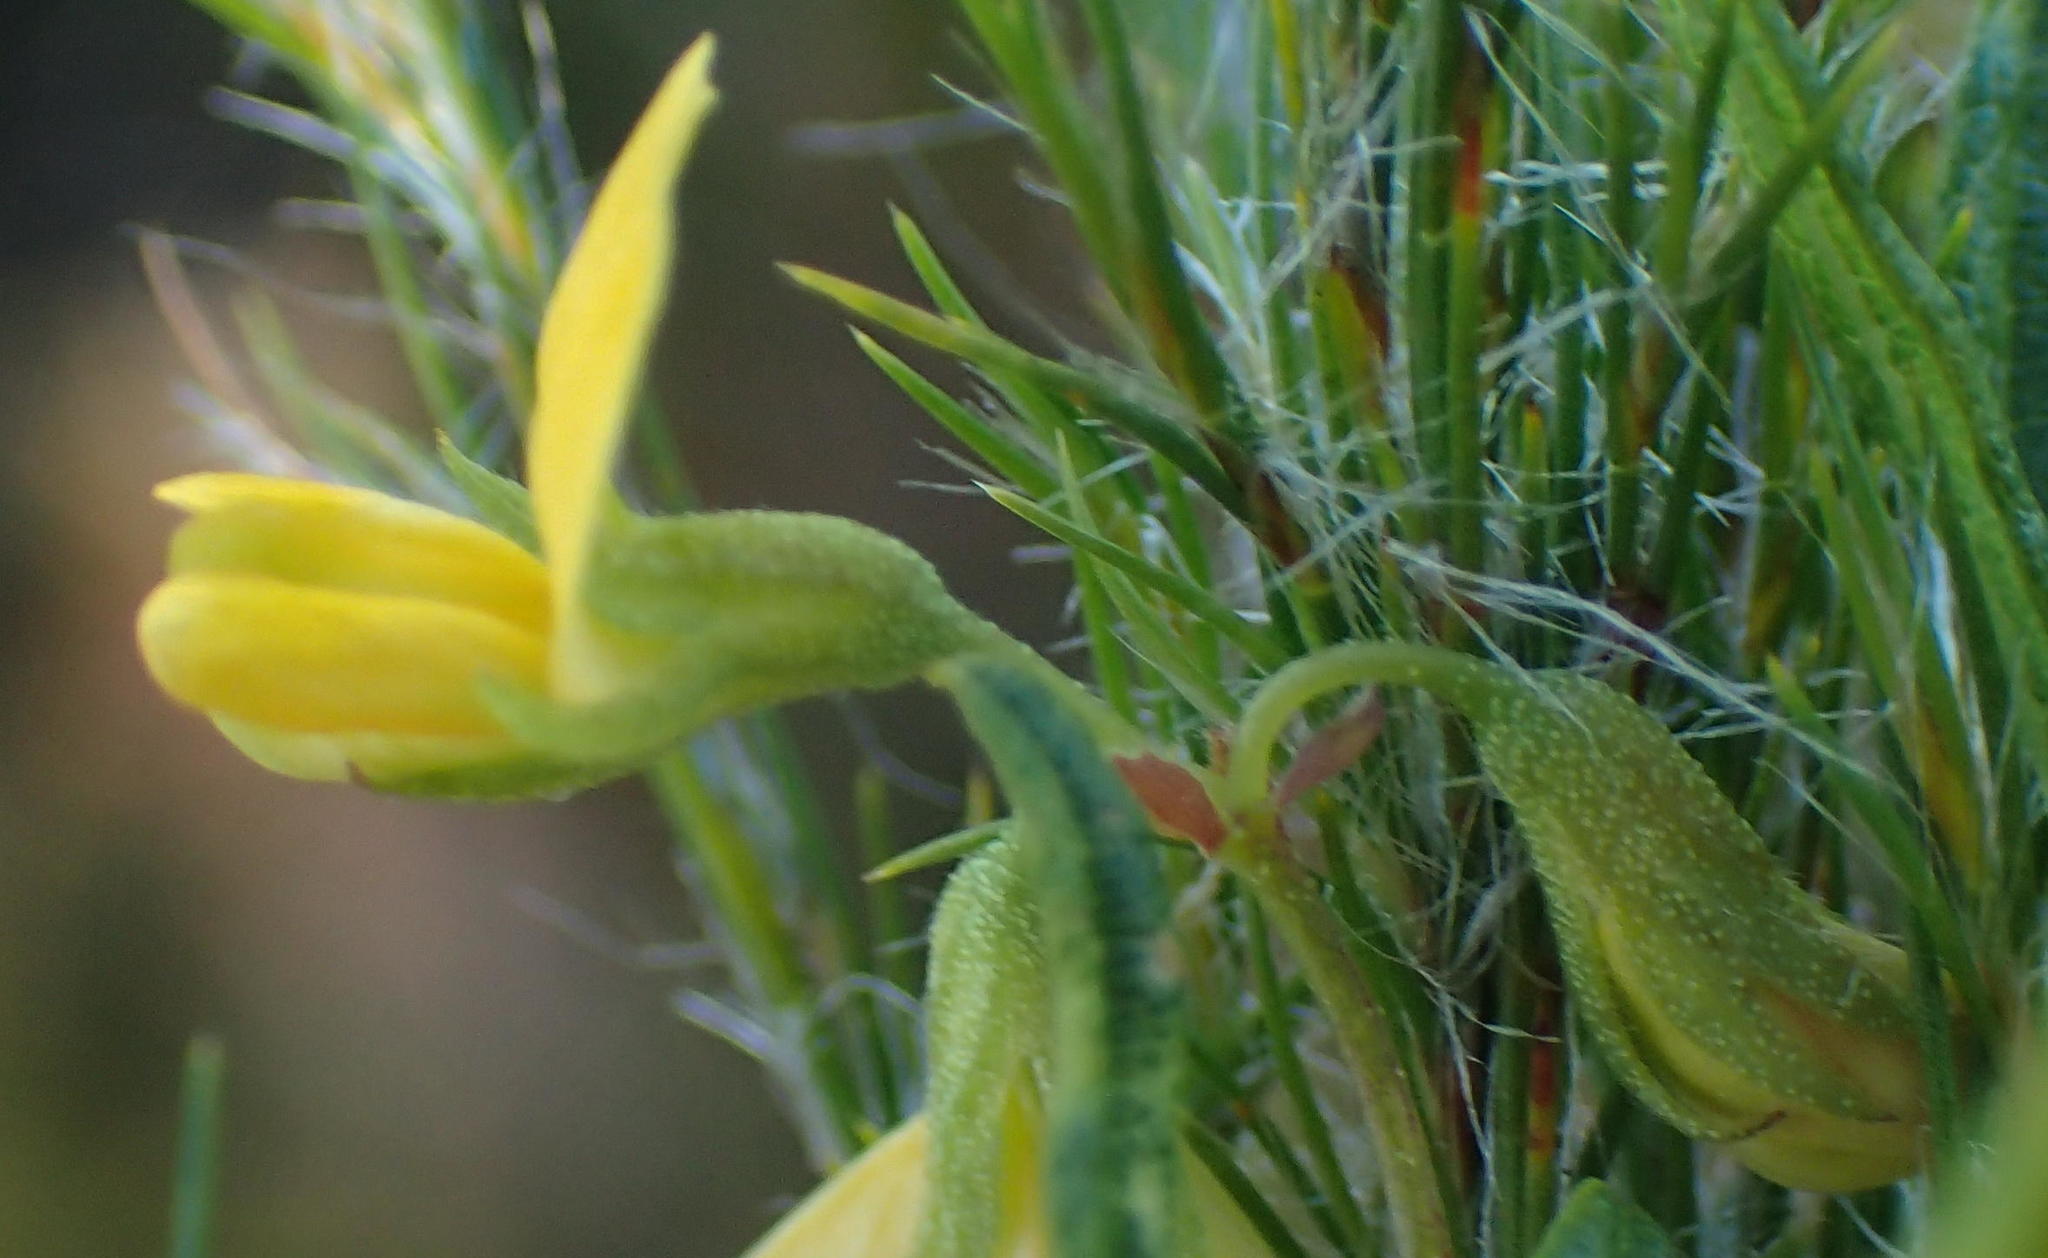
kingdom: Plantae
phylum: Tracheophyta
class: Magnoliopsida
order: Fabales
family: Fabaceae
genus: Rhynchosia
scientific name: Rhynchosia leucoscias
